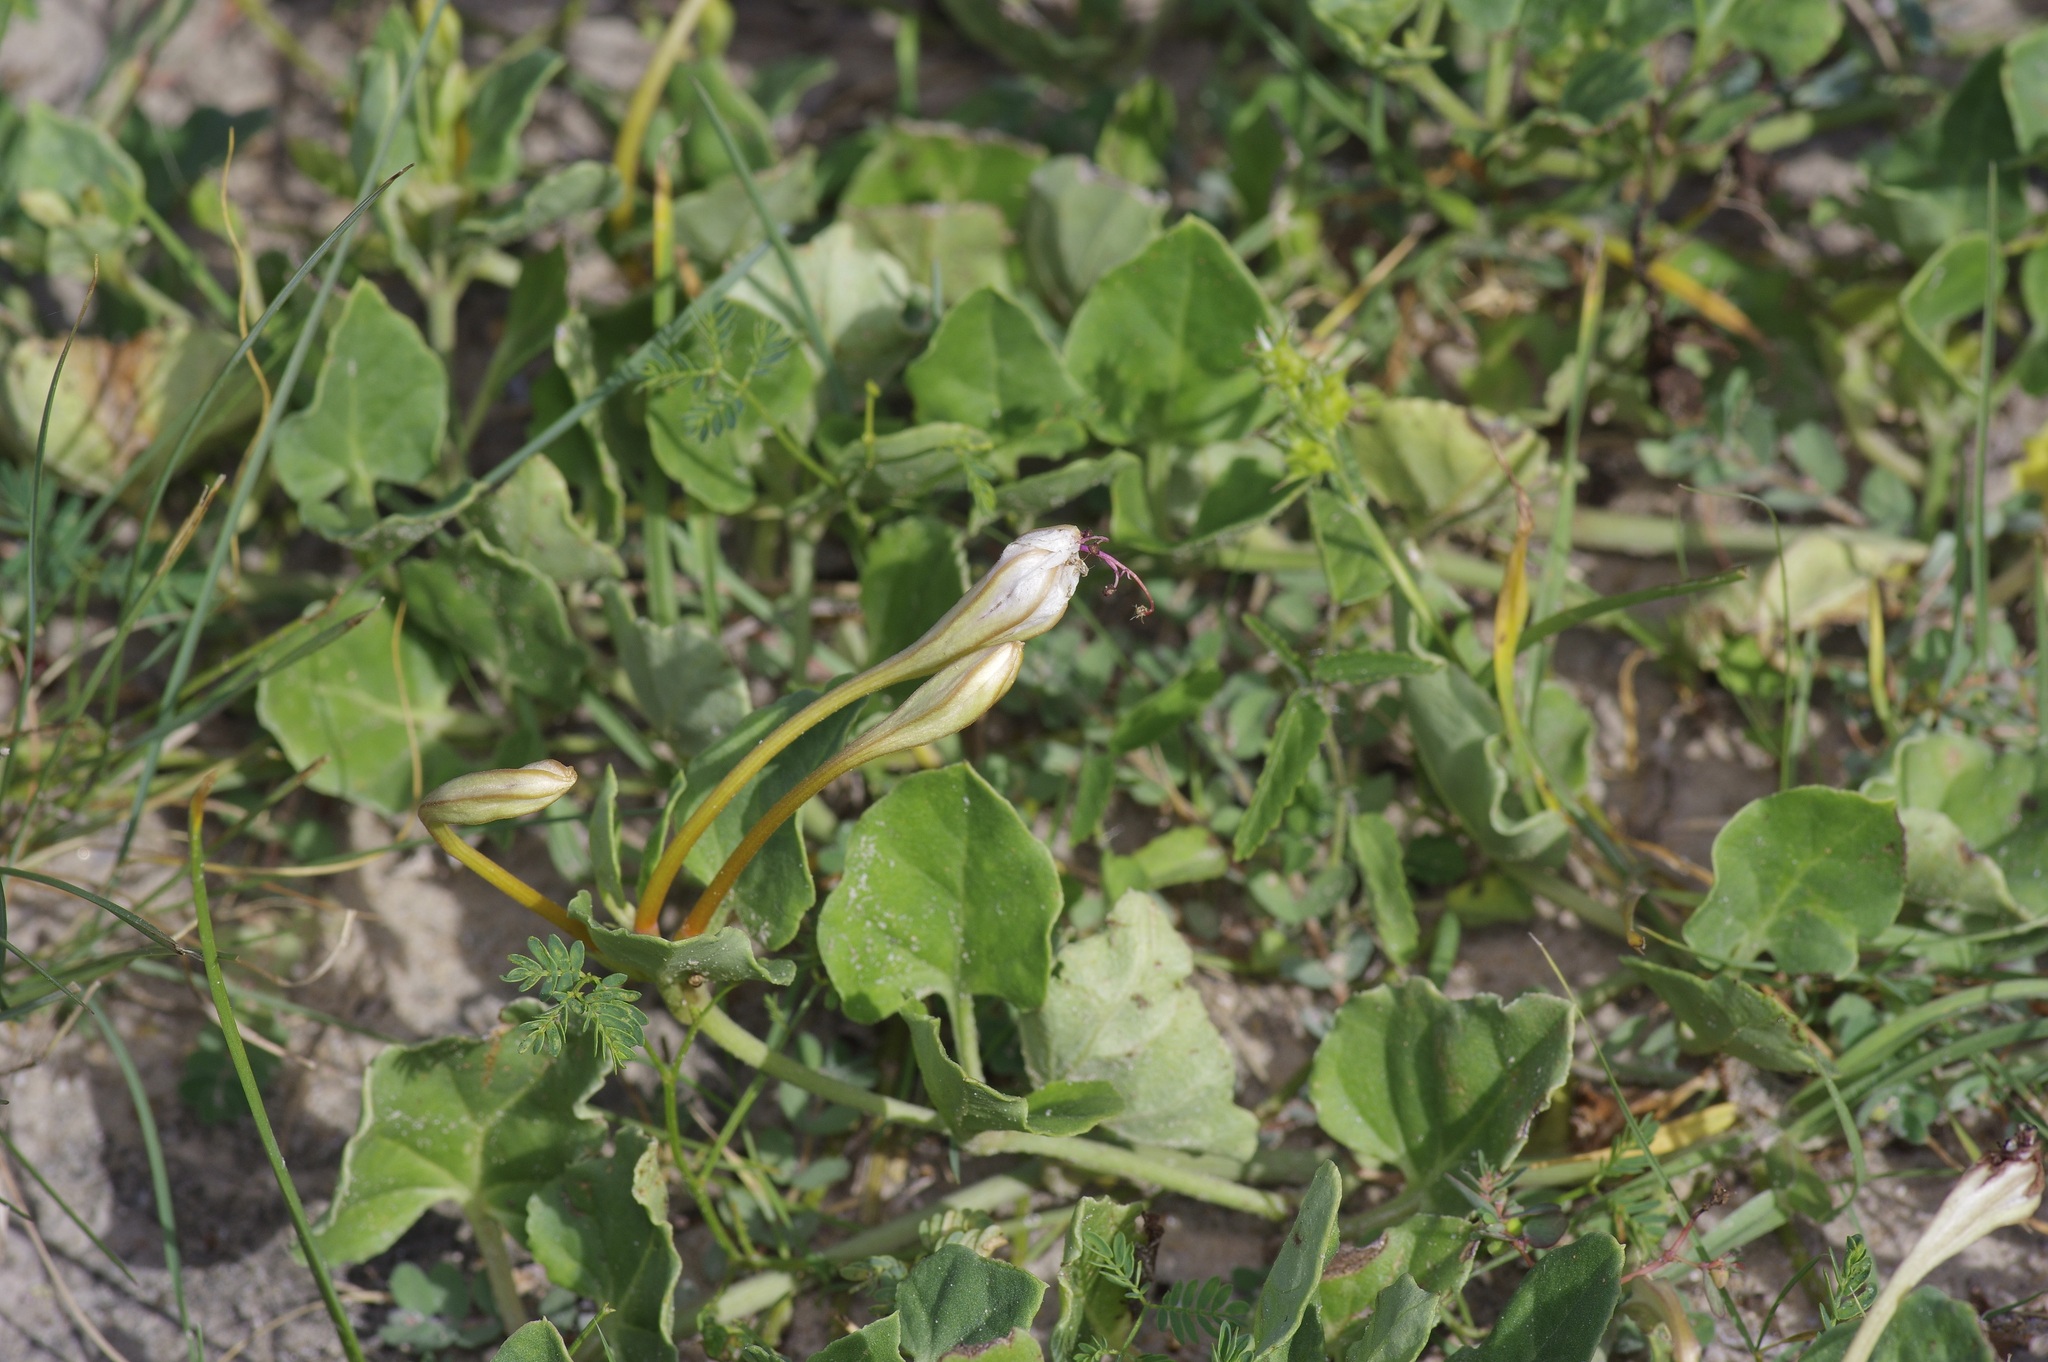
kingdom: Plantae
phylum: Tracheophyta
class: Magnoliopsida
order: Caryophyllales
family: Nyctaginaceae
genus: Acleisanthes
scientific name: Acleisanthes obtusa
